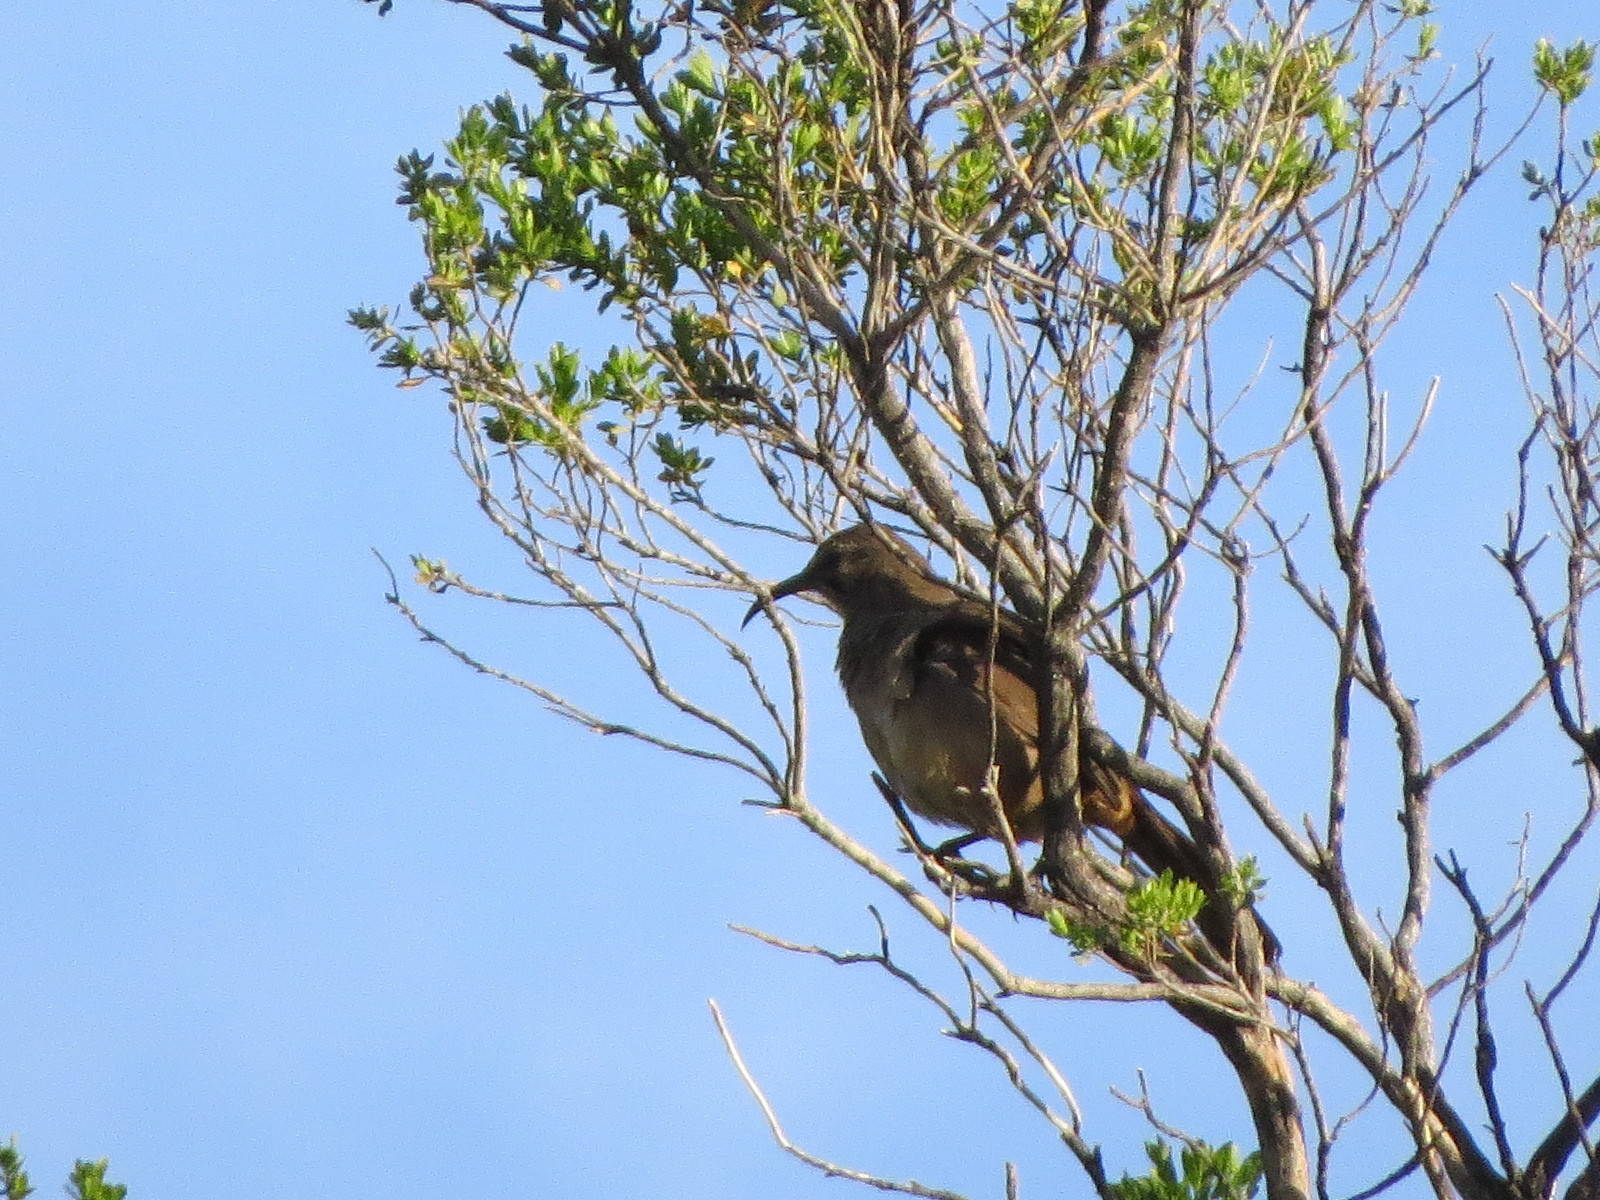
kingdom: Animalia
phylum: Chordata
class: Aves
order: Passeriformes
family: Mimidae
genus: Toxostoma
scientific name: Toxostoma redivivum
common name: California thrasher
